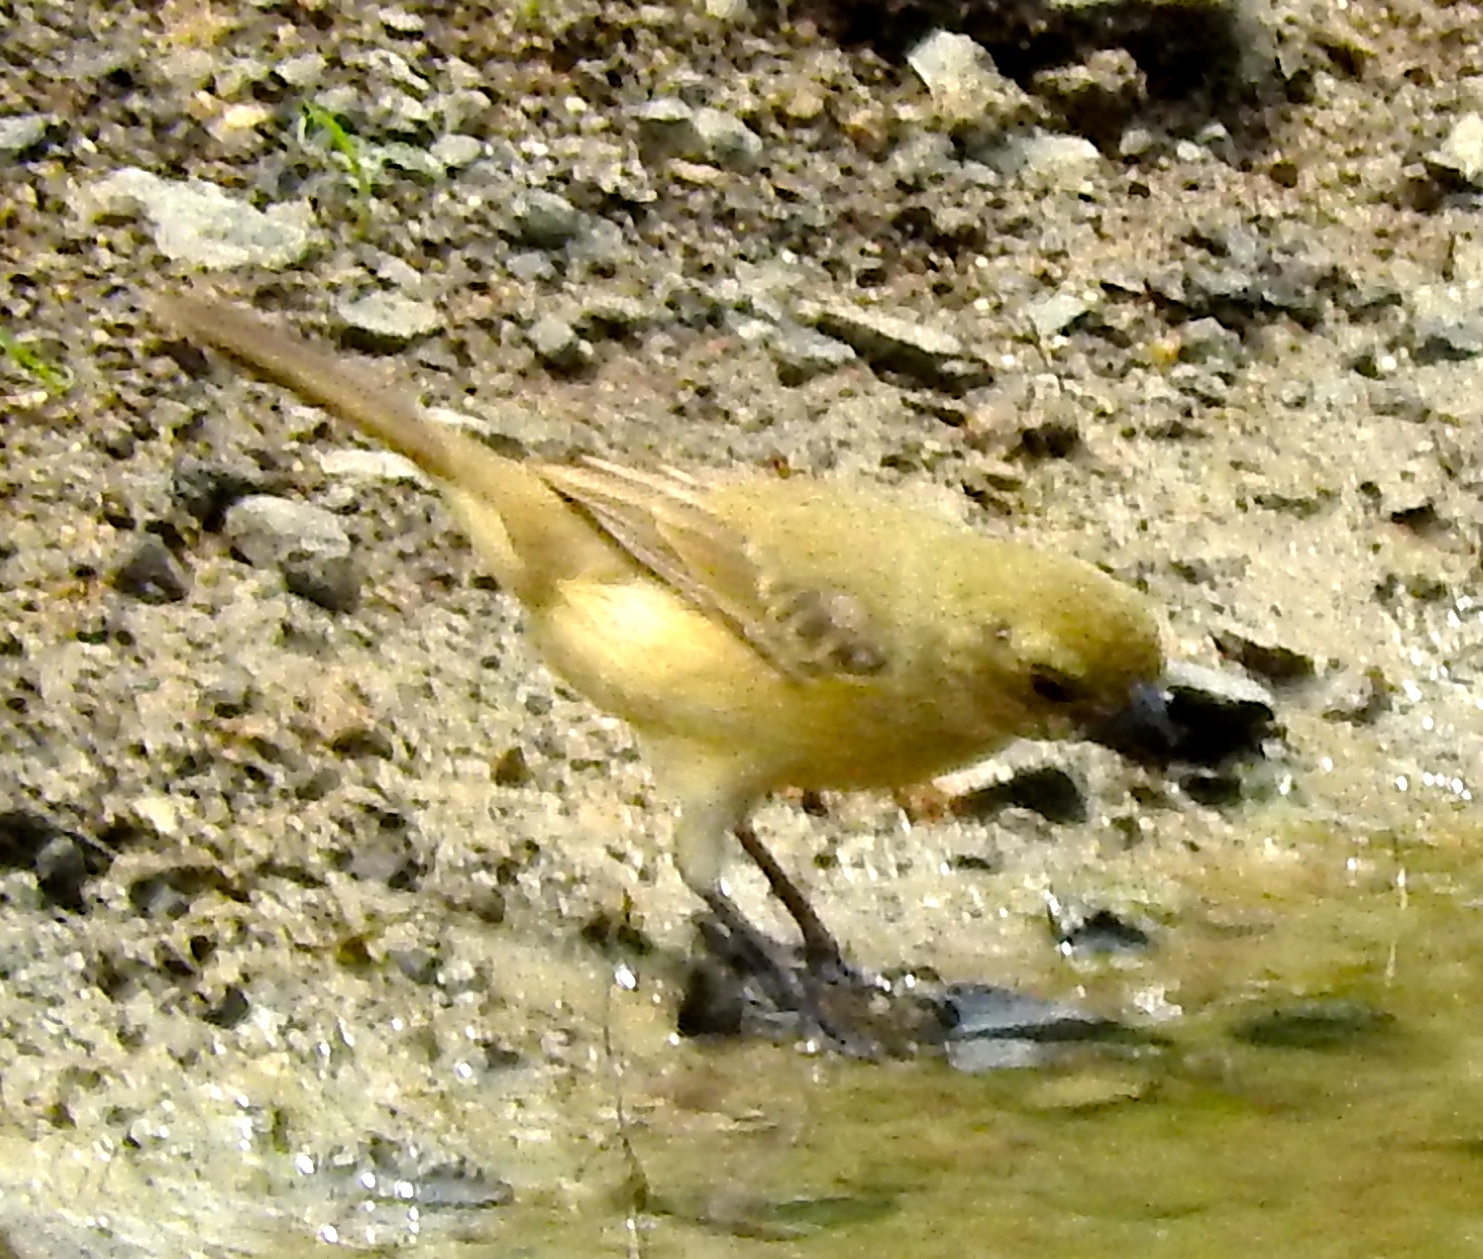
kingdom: Animalia
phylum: Chordata
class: Aves
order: Passeriformes
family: Thraupidae
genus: Sporophila
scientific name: Sporophila torqueola
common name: White-collared seedeater
